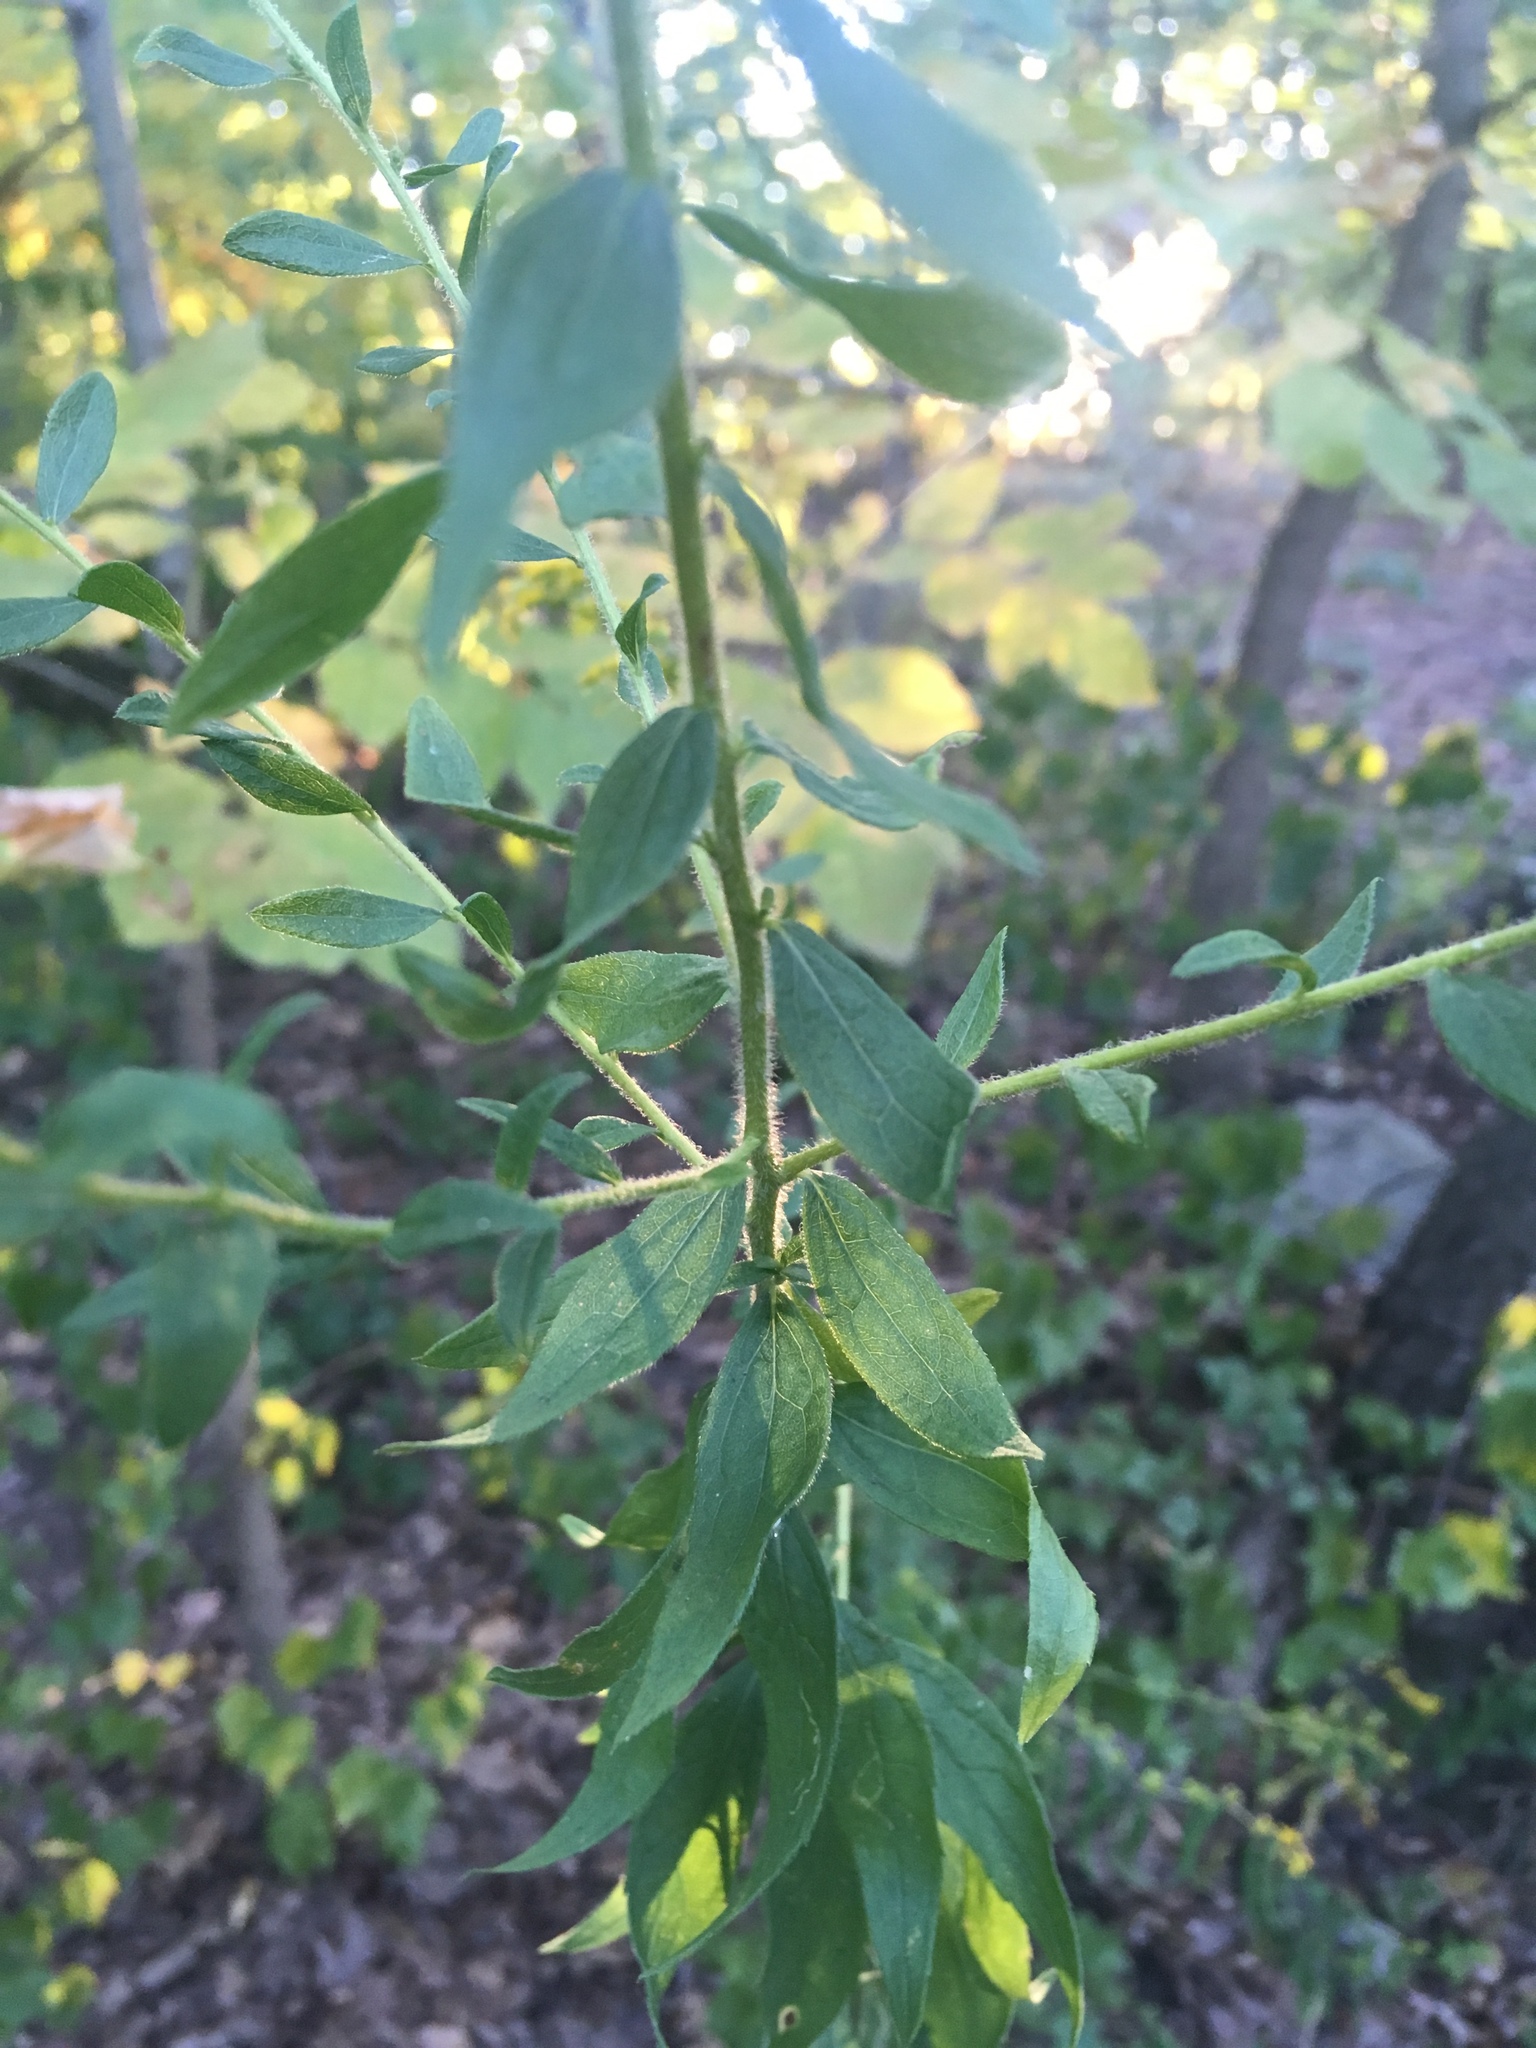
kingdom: Plantae
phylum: Tracheophyta
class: Magnoliopsida
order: Asterales
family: Asteraceae
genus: Solidago
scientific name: Solidago rugosa
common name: Rough-stemmed goldenrod
